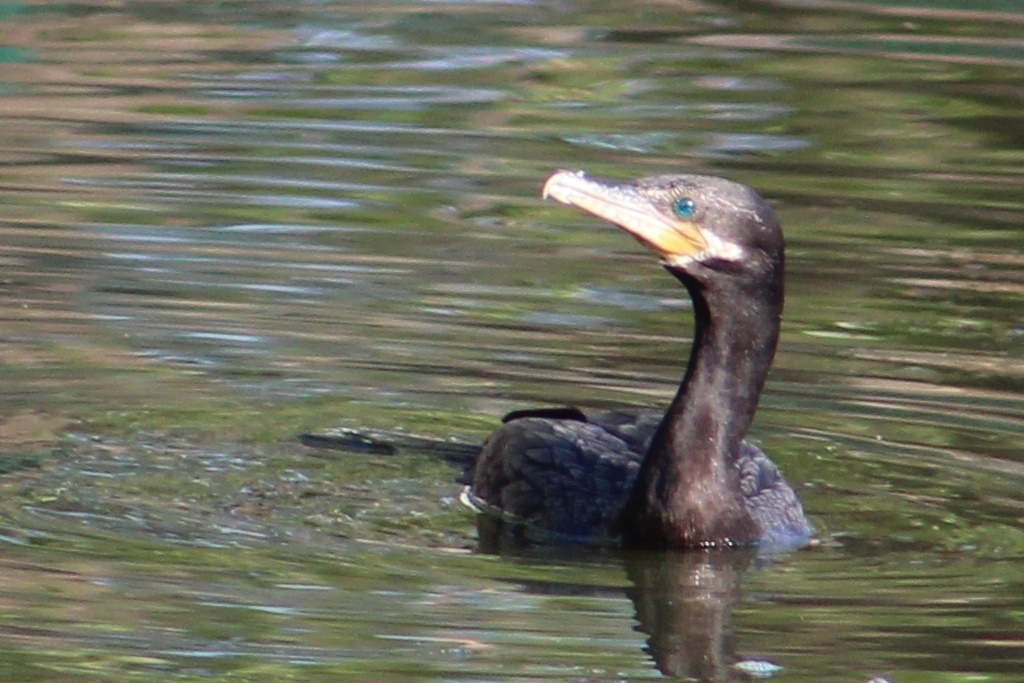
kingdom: Animalia
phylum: Chordata
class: Aves
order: Suliformes
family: Phalacrocoracidae
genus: Phalacrocorax
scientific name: Phalacrocorax brasilianus
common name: Neotropic cormorant
